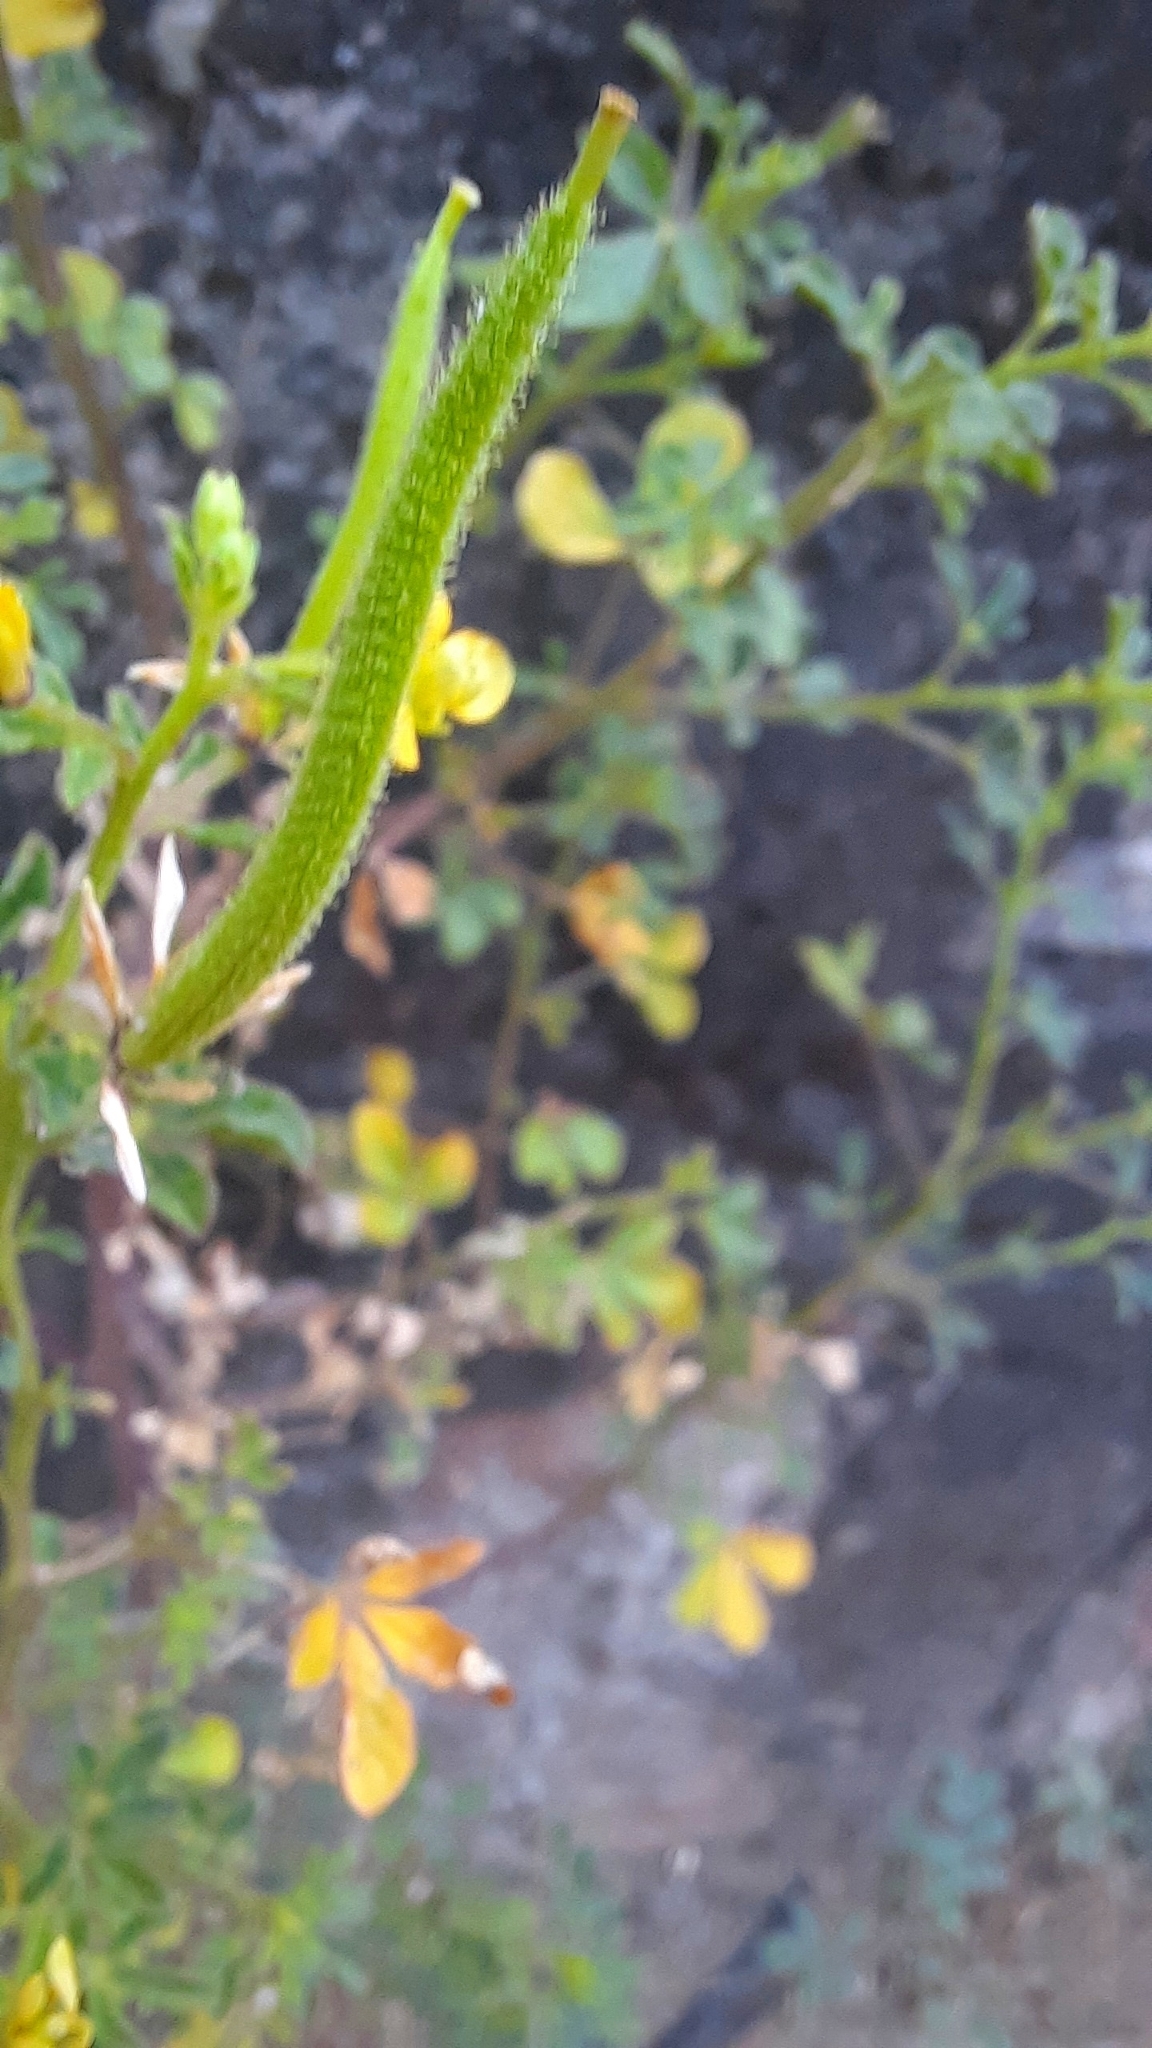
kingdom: Plantae
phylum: Tracheophyta
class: Magnoliopsida
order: Brassicales
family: Cleomaceae
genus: Arivela
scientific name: Arivela viscosa
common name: Asian spiderflower
